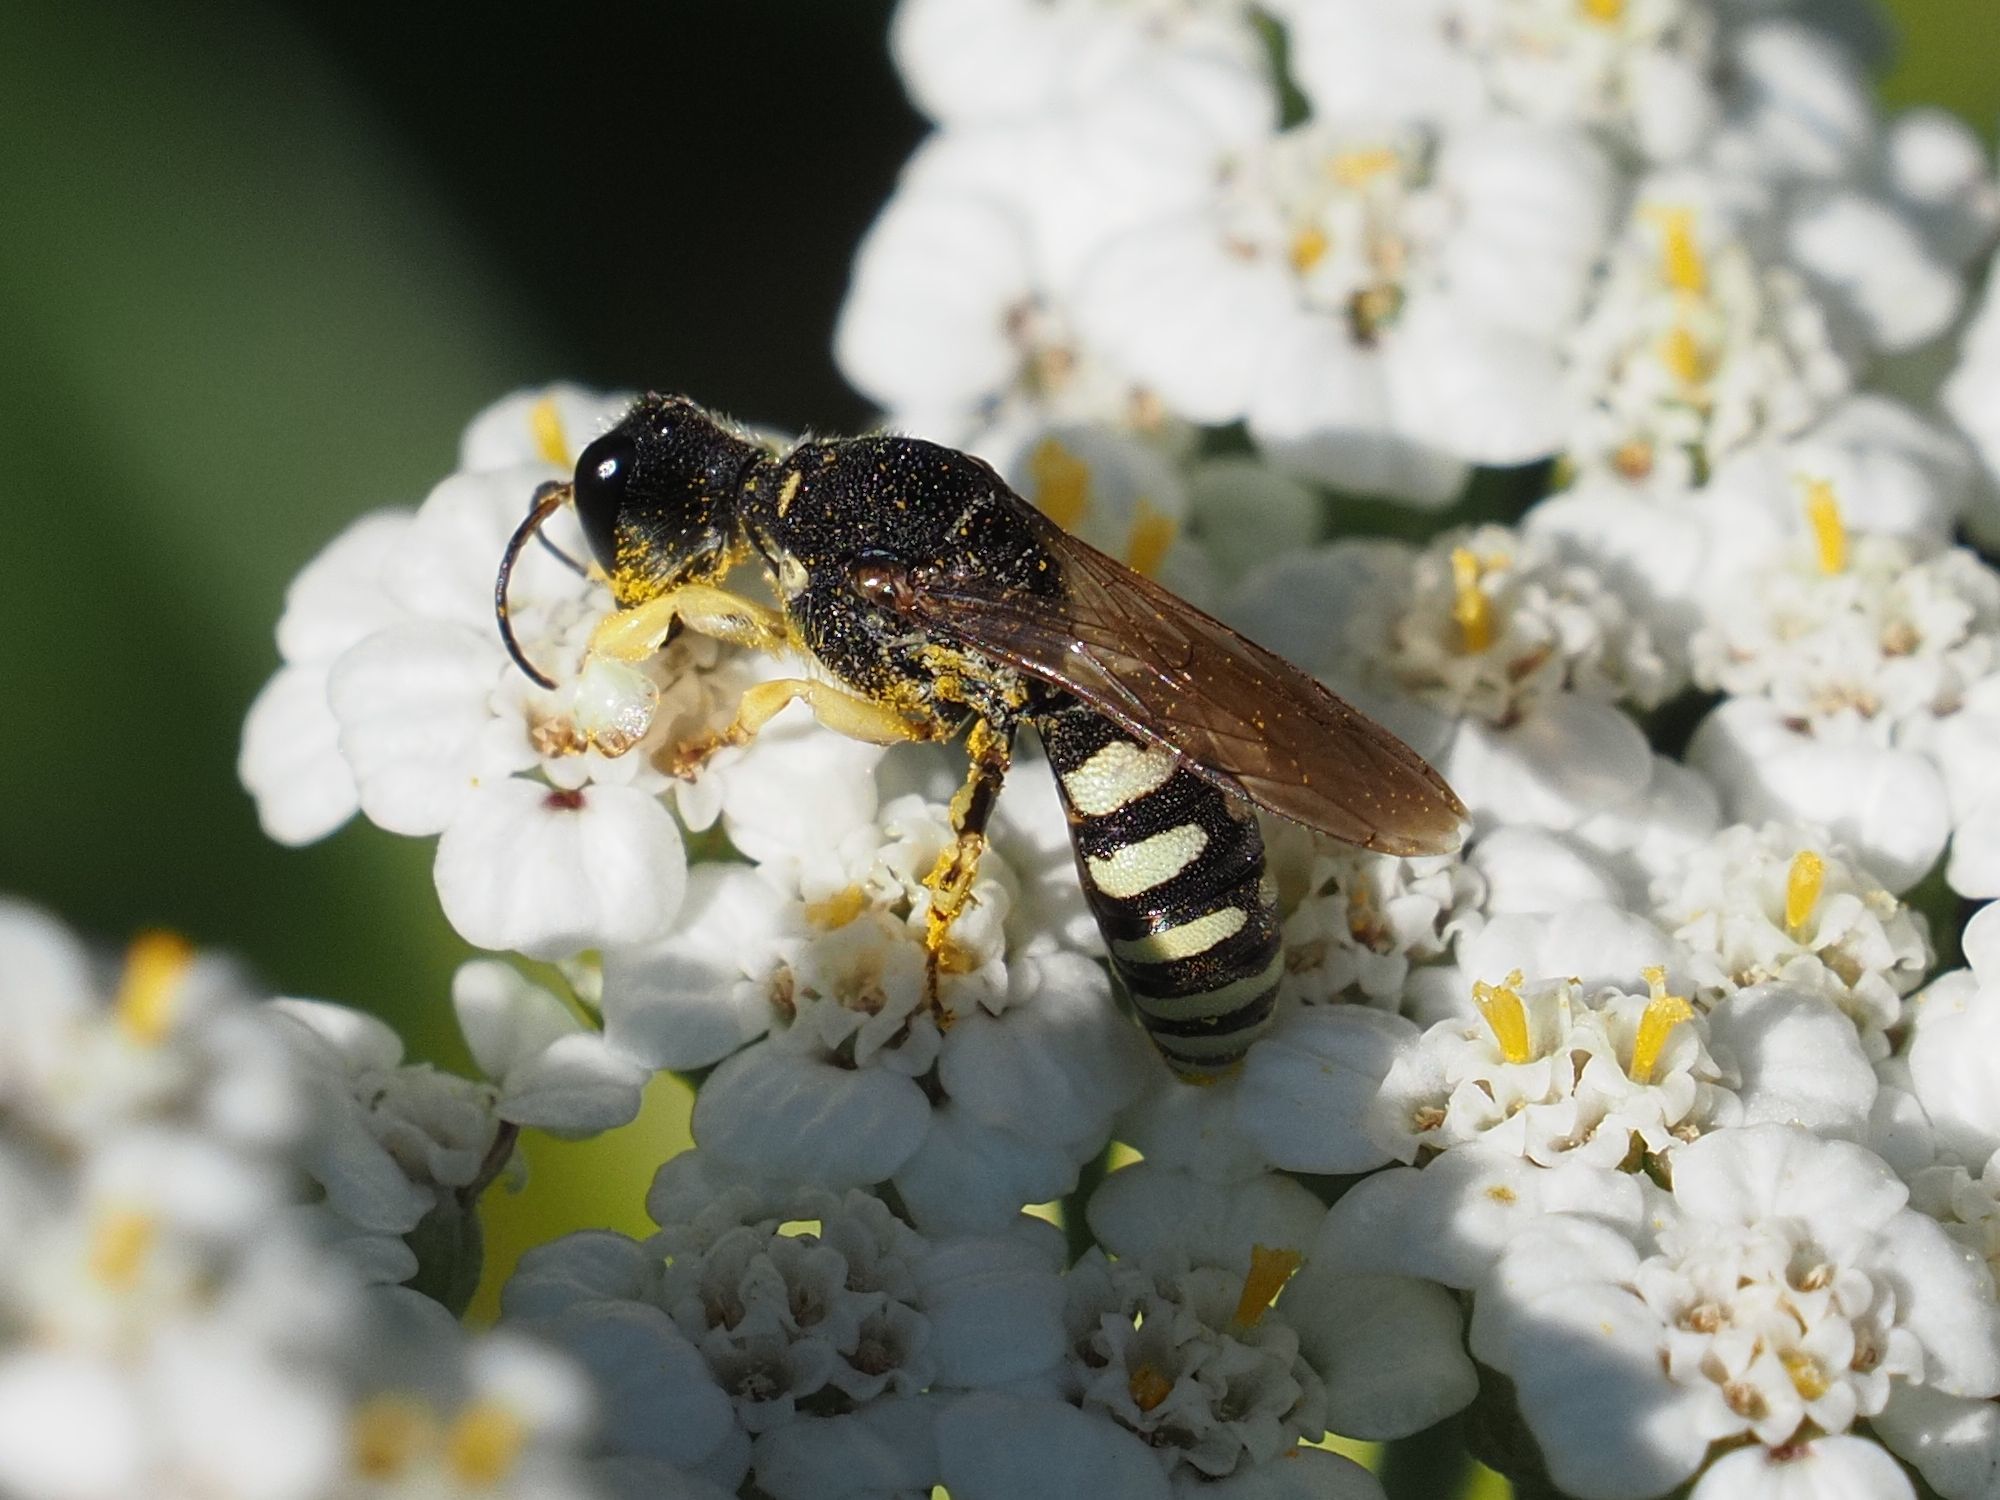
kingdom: Animalia
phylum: Arthropoda
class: Insecta
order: Hymenoptera
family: Crabronidae
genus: Lestica
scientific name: Lestica clypeata
